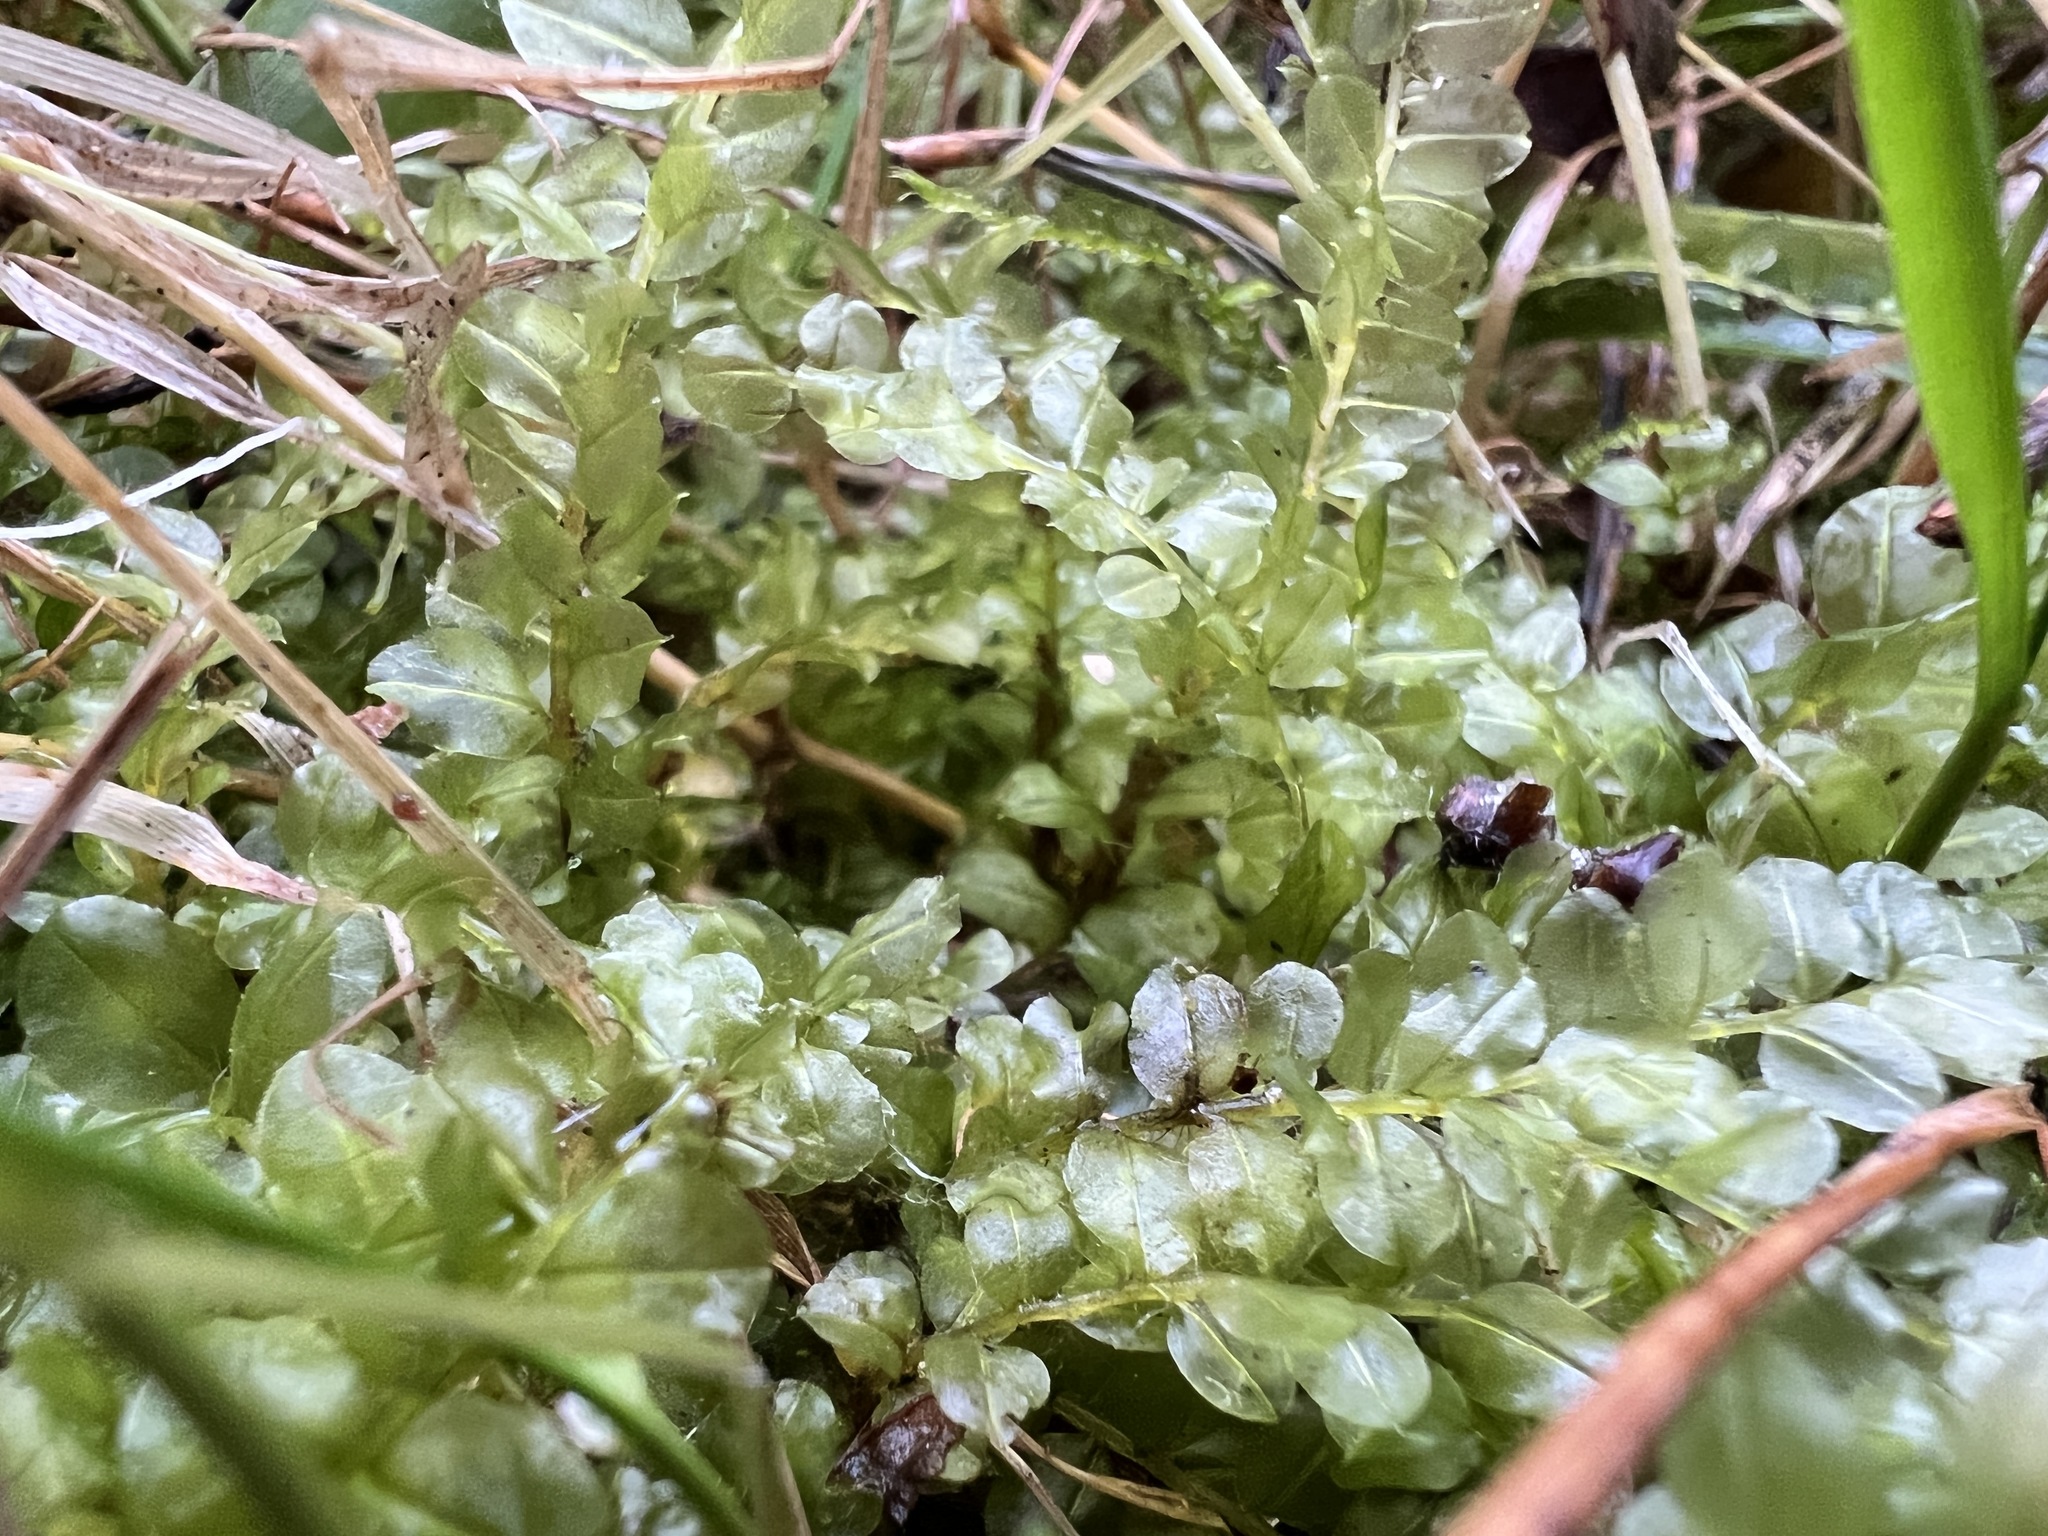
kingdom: Plantae
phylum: Bryophyta
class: Bryopsida
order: Bryales
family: Mniaceae
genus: Plagiomnium
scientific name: Plagiomnium cuspidatum
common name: Woodsy leafy moss
